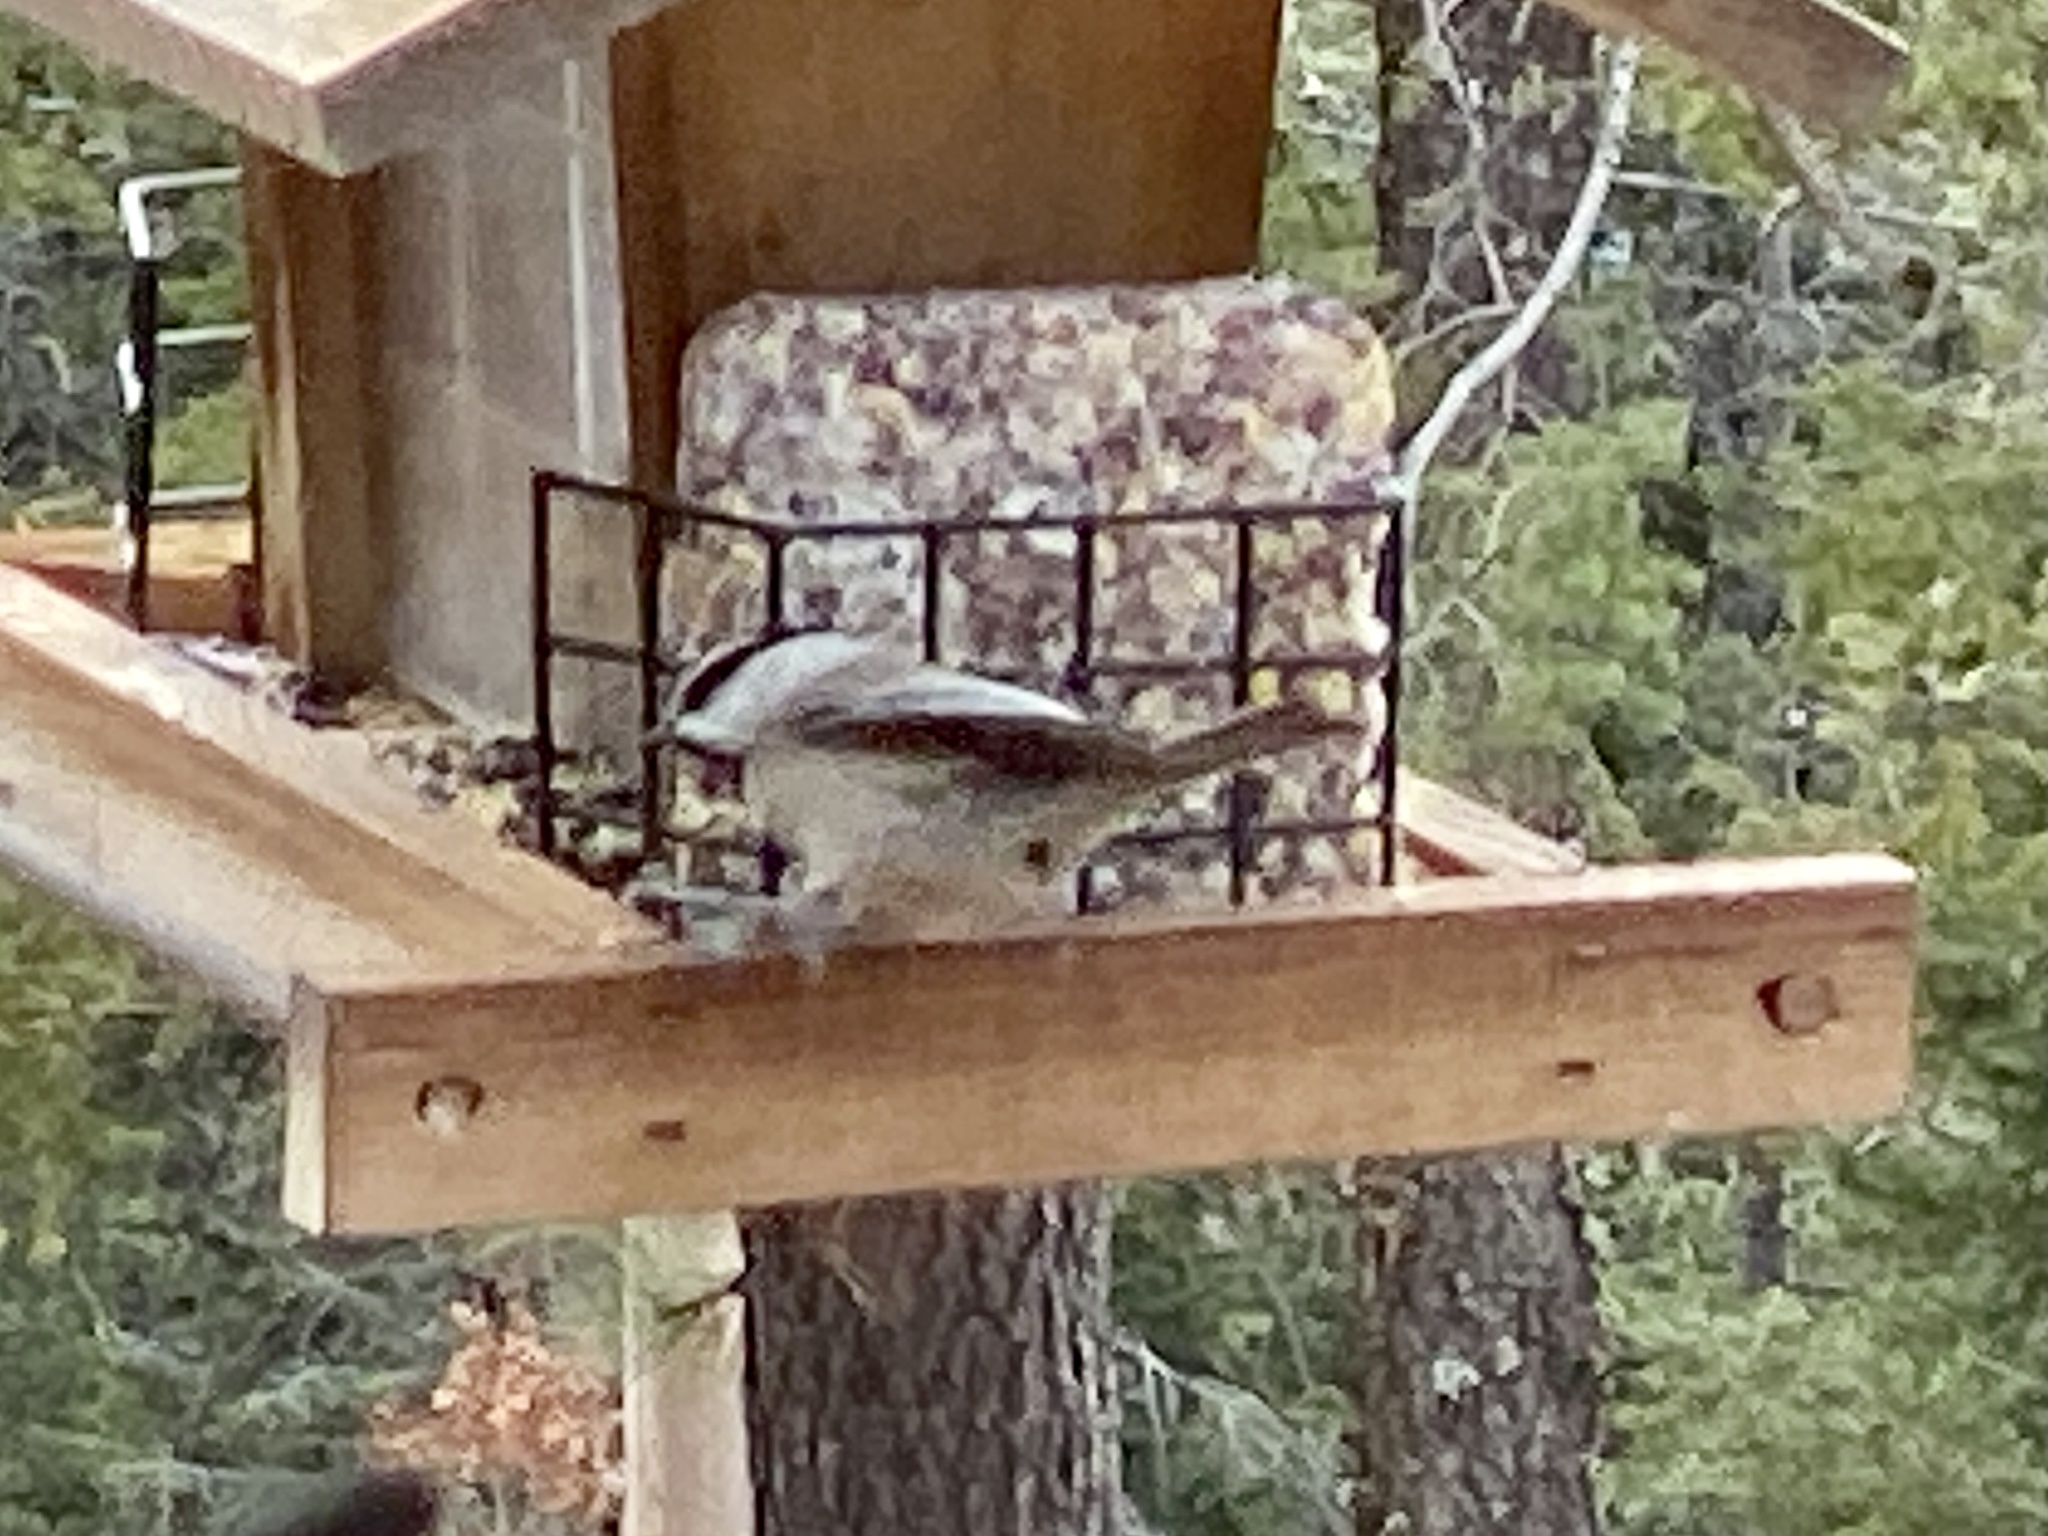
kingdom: Animalia
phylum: Chordata
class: Aves
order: Passeriformes
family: Paridae
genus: Poecile
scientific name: Poecile gambeli
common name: Mountain chickadee
